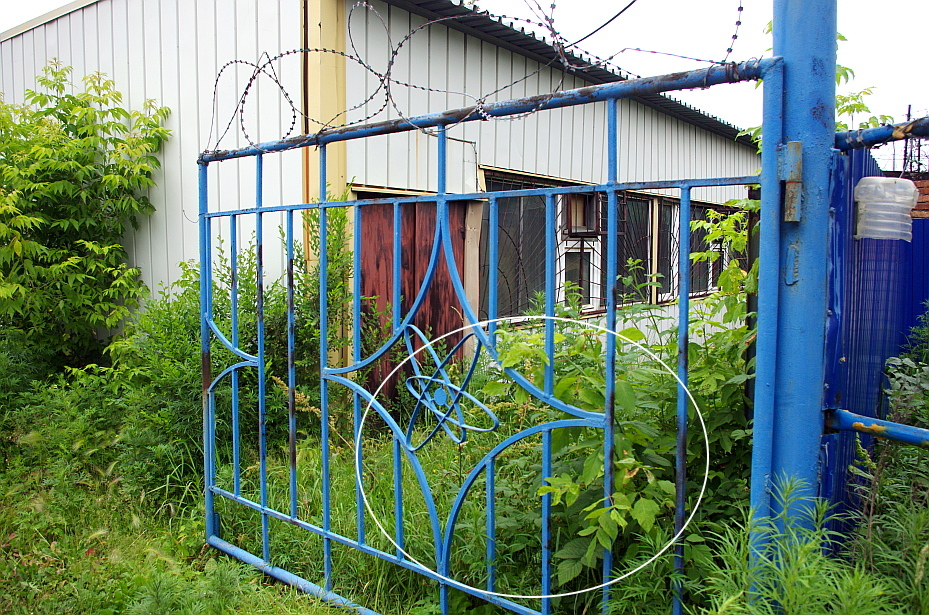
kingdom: Plantae
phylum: Tracheophyta
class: Magnoliopsida
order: Sapindales
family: Sapindaceae
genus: Acer
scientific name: Acer negundo
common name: Ashleaf maple
